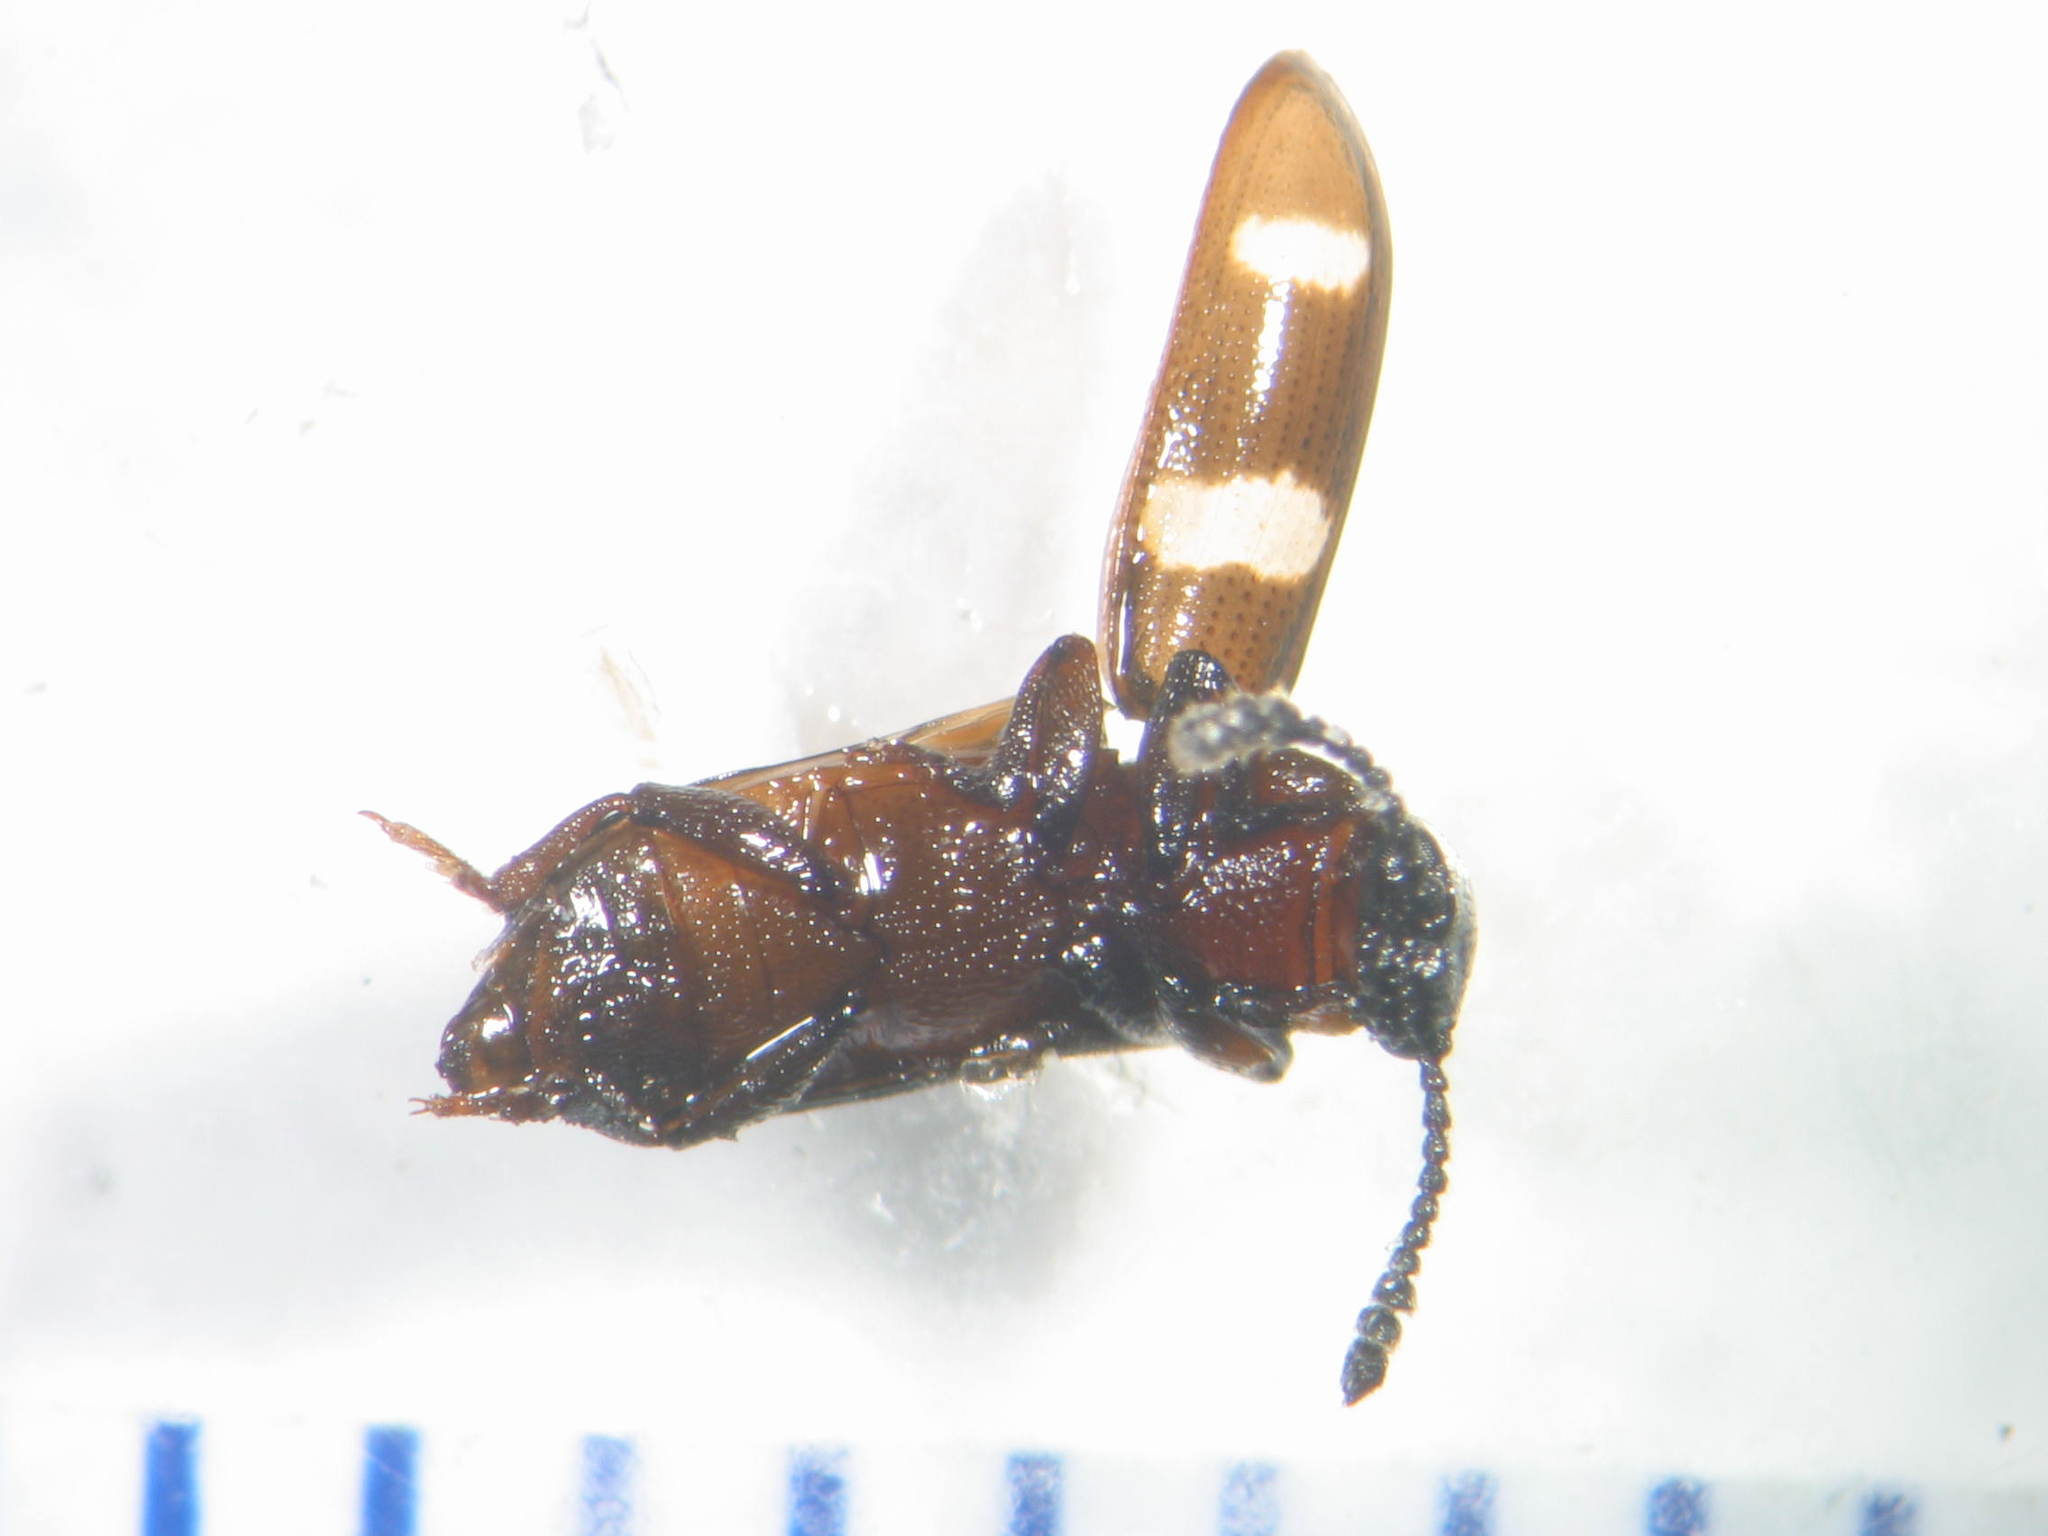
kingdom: Animalia
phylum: Arthropoda
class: Insecta
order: Coleoptera
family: Erotylidae
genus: Thallis
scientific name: Thallis
